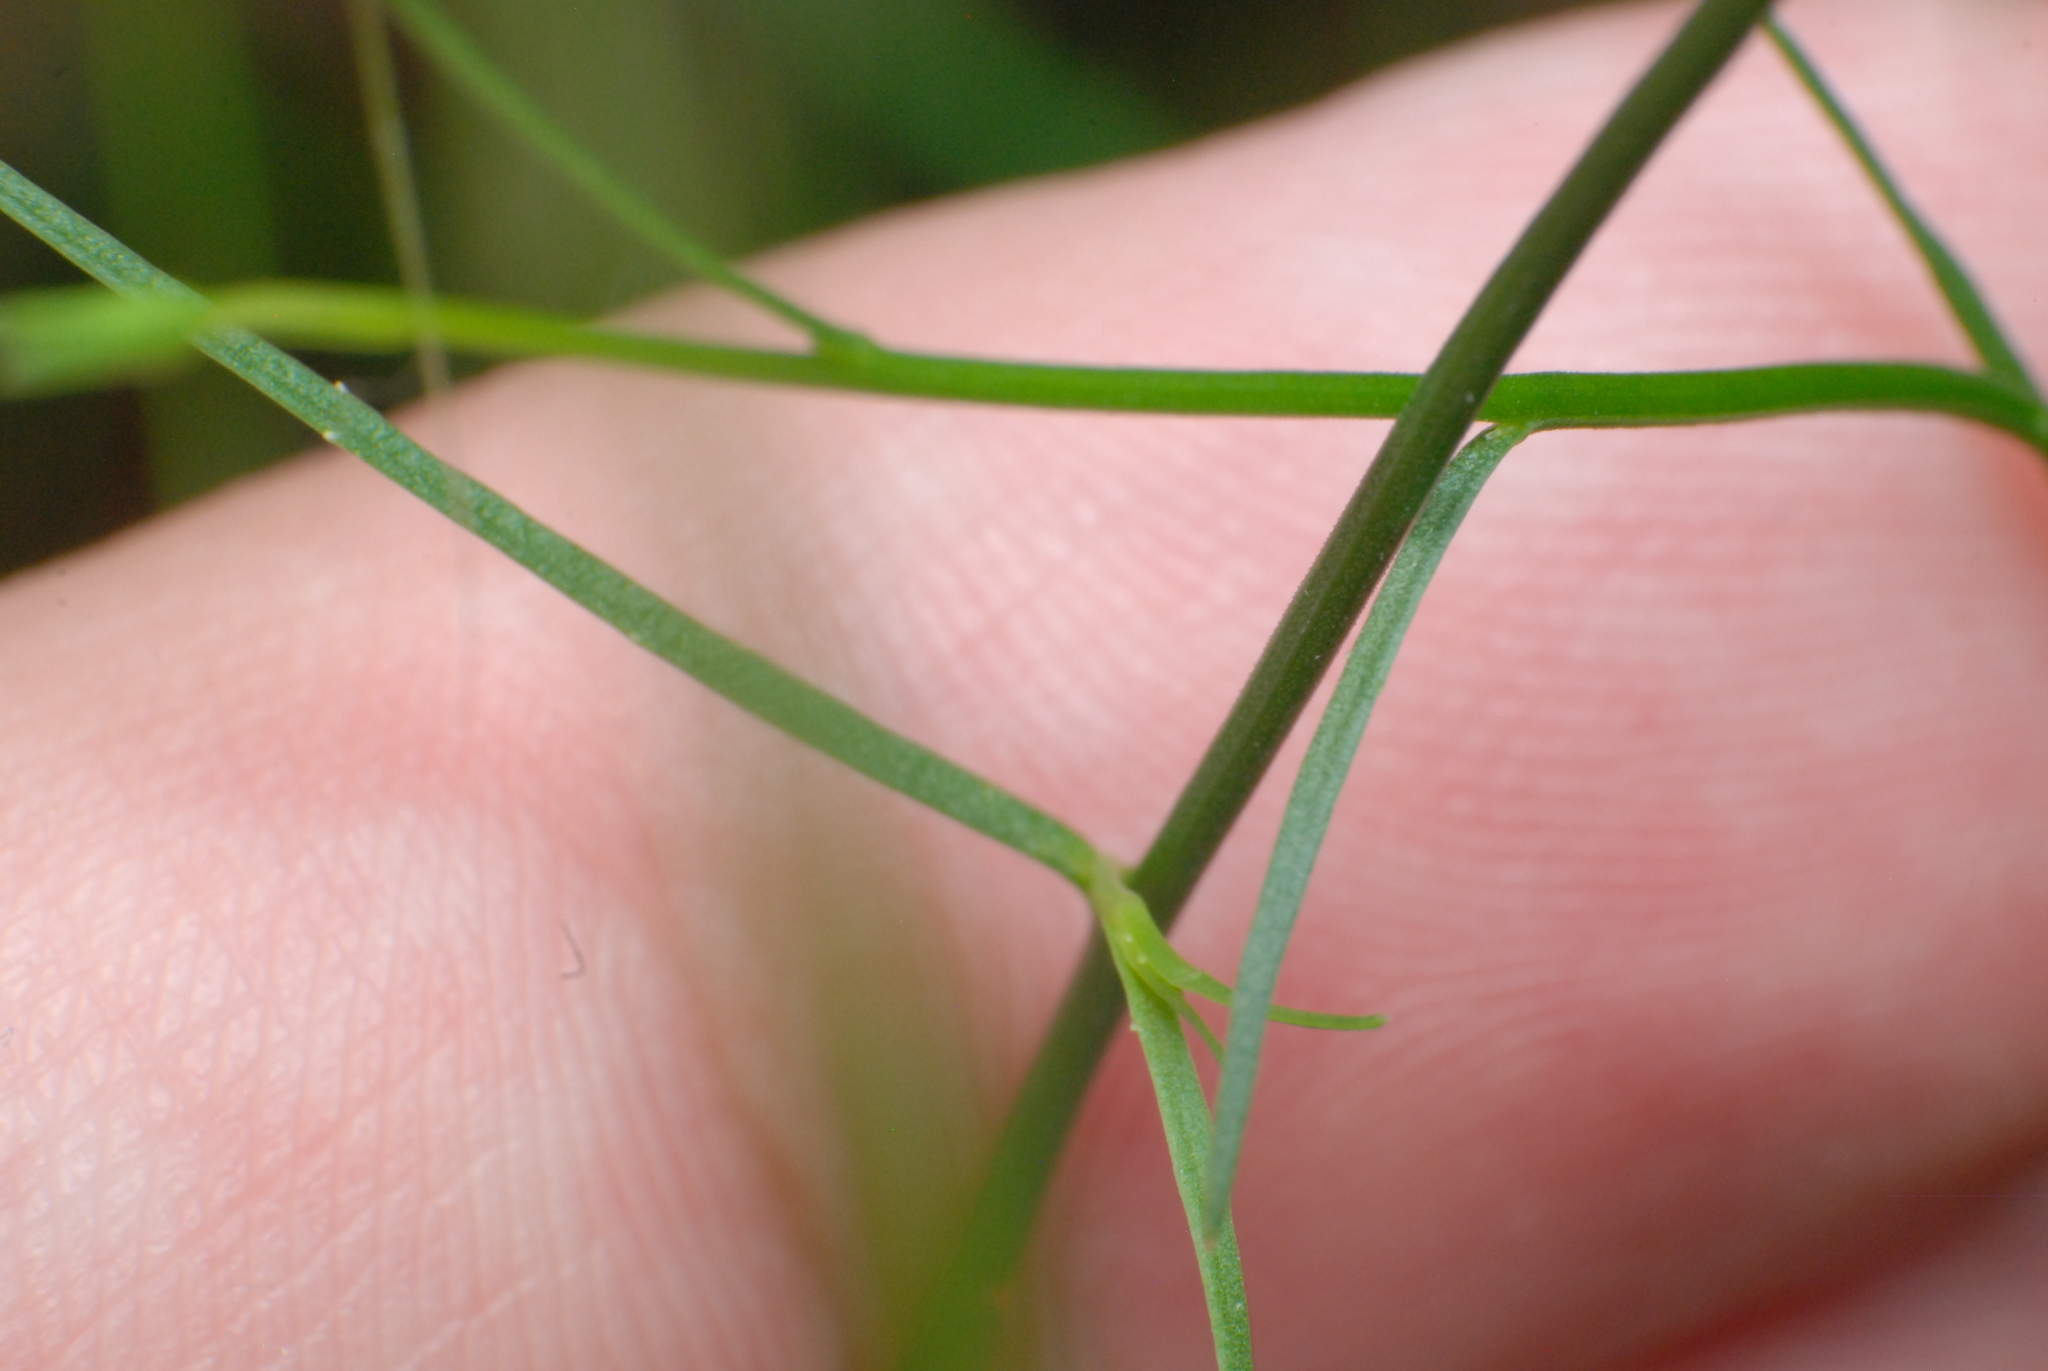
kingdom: Plantae
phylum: Tracheophyta
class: Magnoliopsida
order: Asterales
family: Campanulaceae
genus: Wahlenbergia
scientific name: Wahlenbergia capillaris
